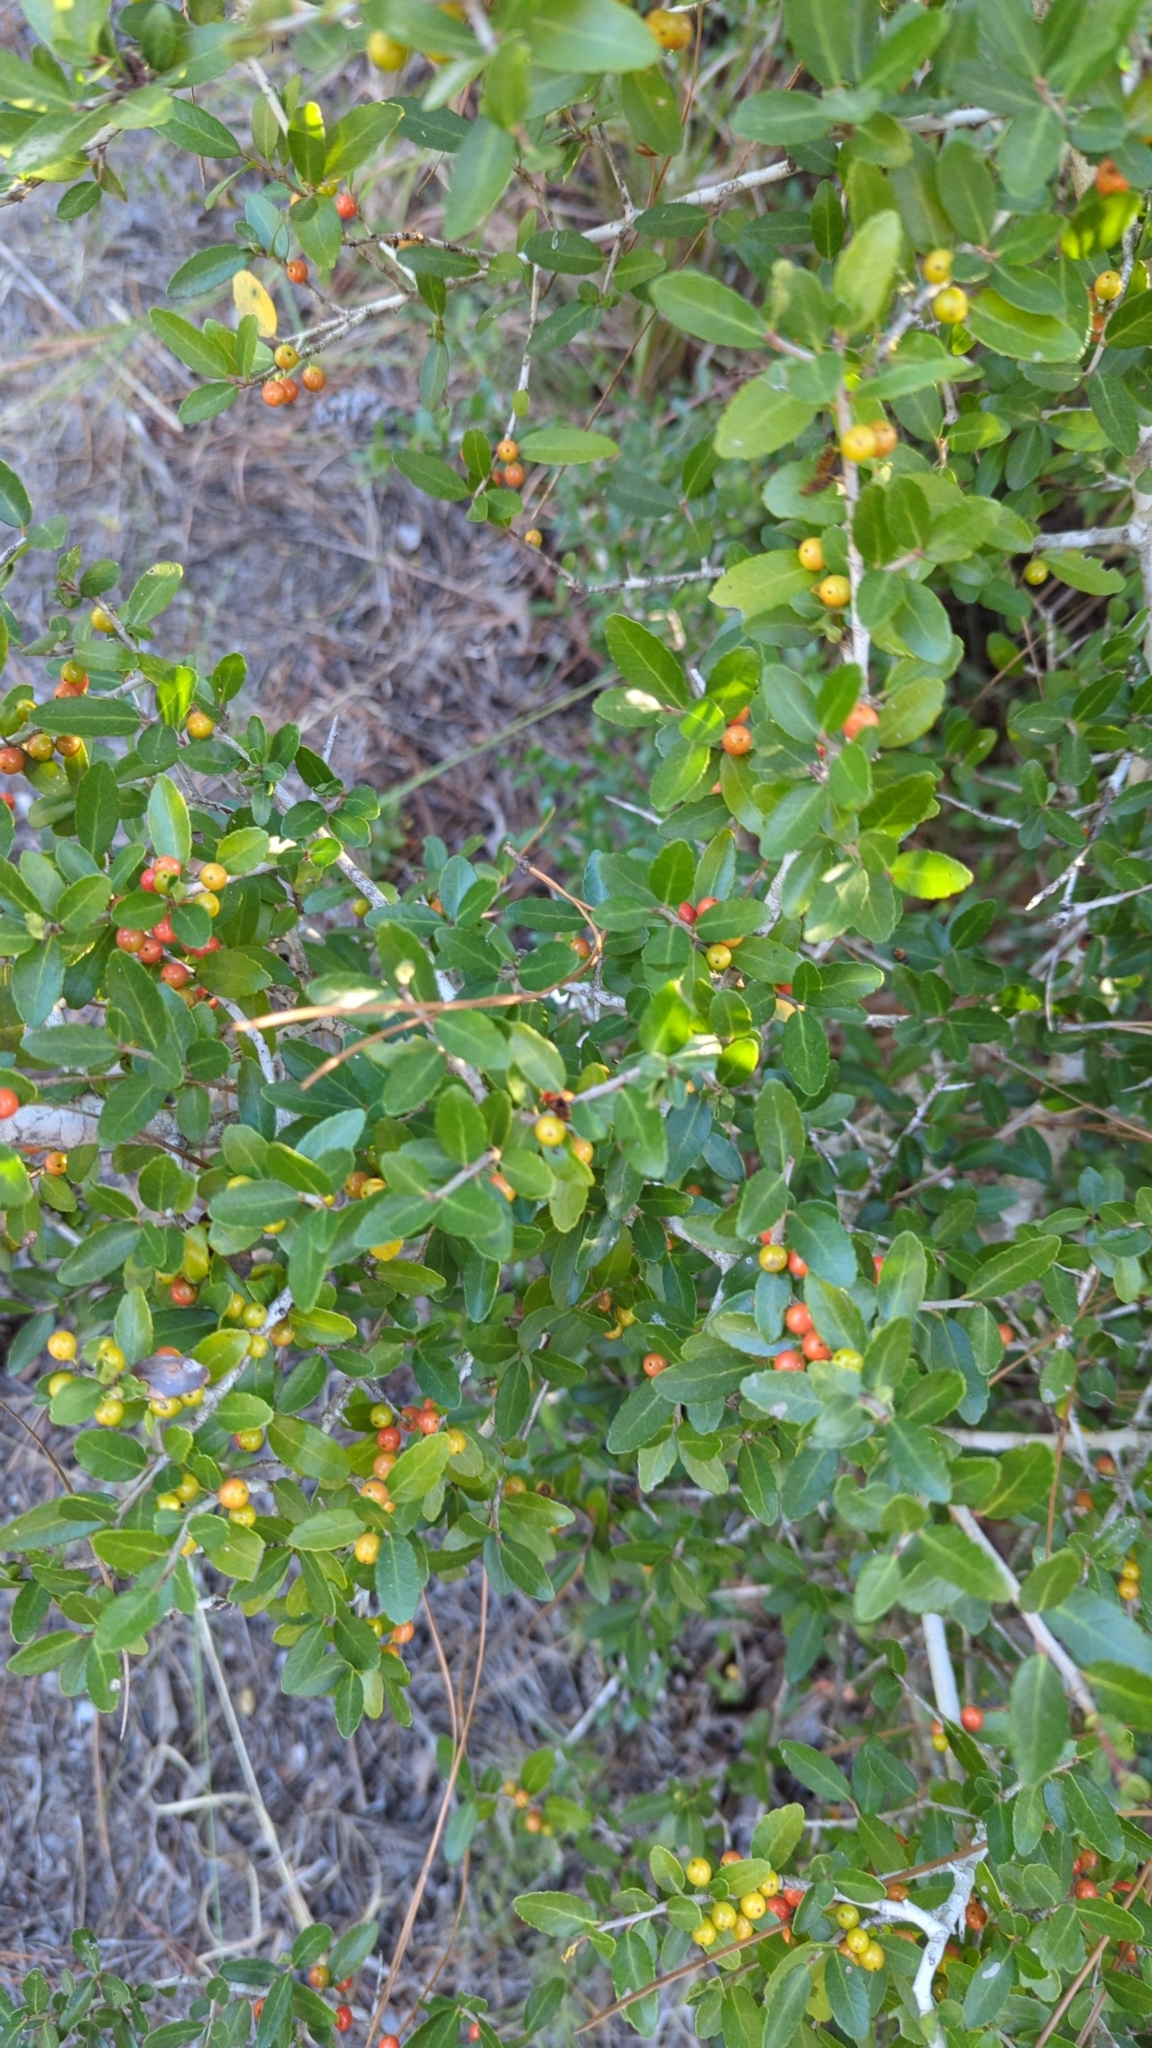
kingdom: Plantae
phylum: Tracheophyta
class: Magnoliopsida
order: Aquifoliales
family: Aquifoliaceae
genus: Ilex
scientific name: Ilex vomitoria
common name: Yaupon holly
